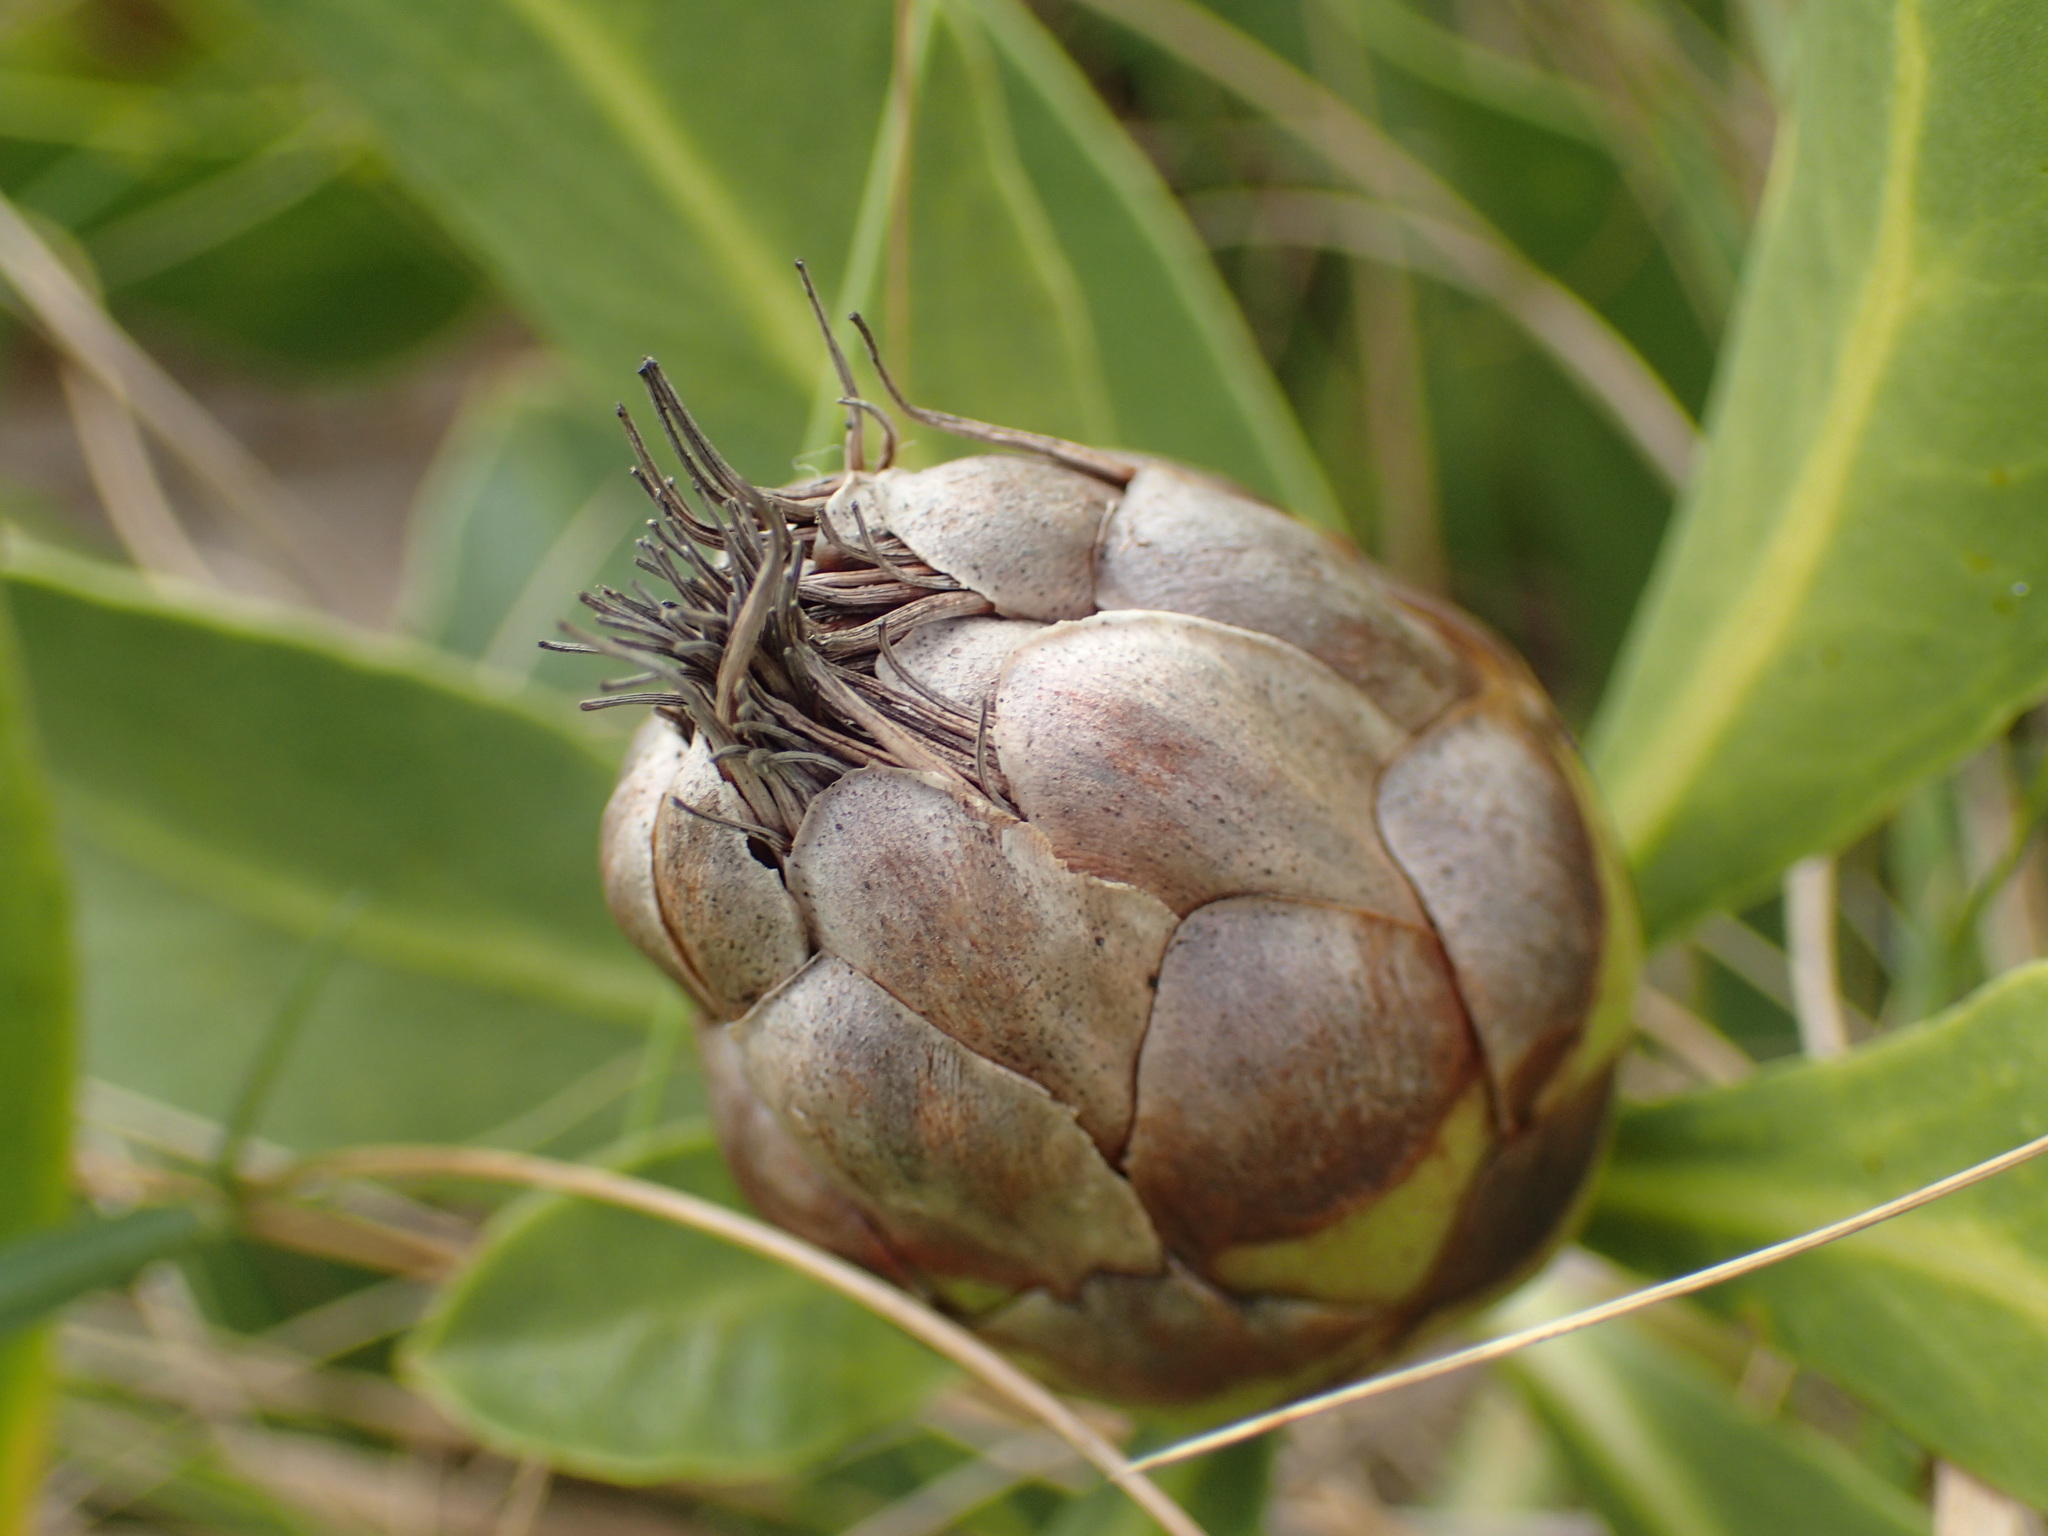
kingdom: Plantae
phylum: Tracheophyta
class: Magnoliopsida
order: Proteales
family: Proteaceae
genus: Protea
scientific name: Protea simplex
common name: Dwarf grassveld sugarbush
